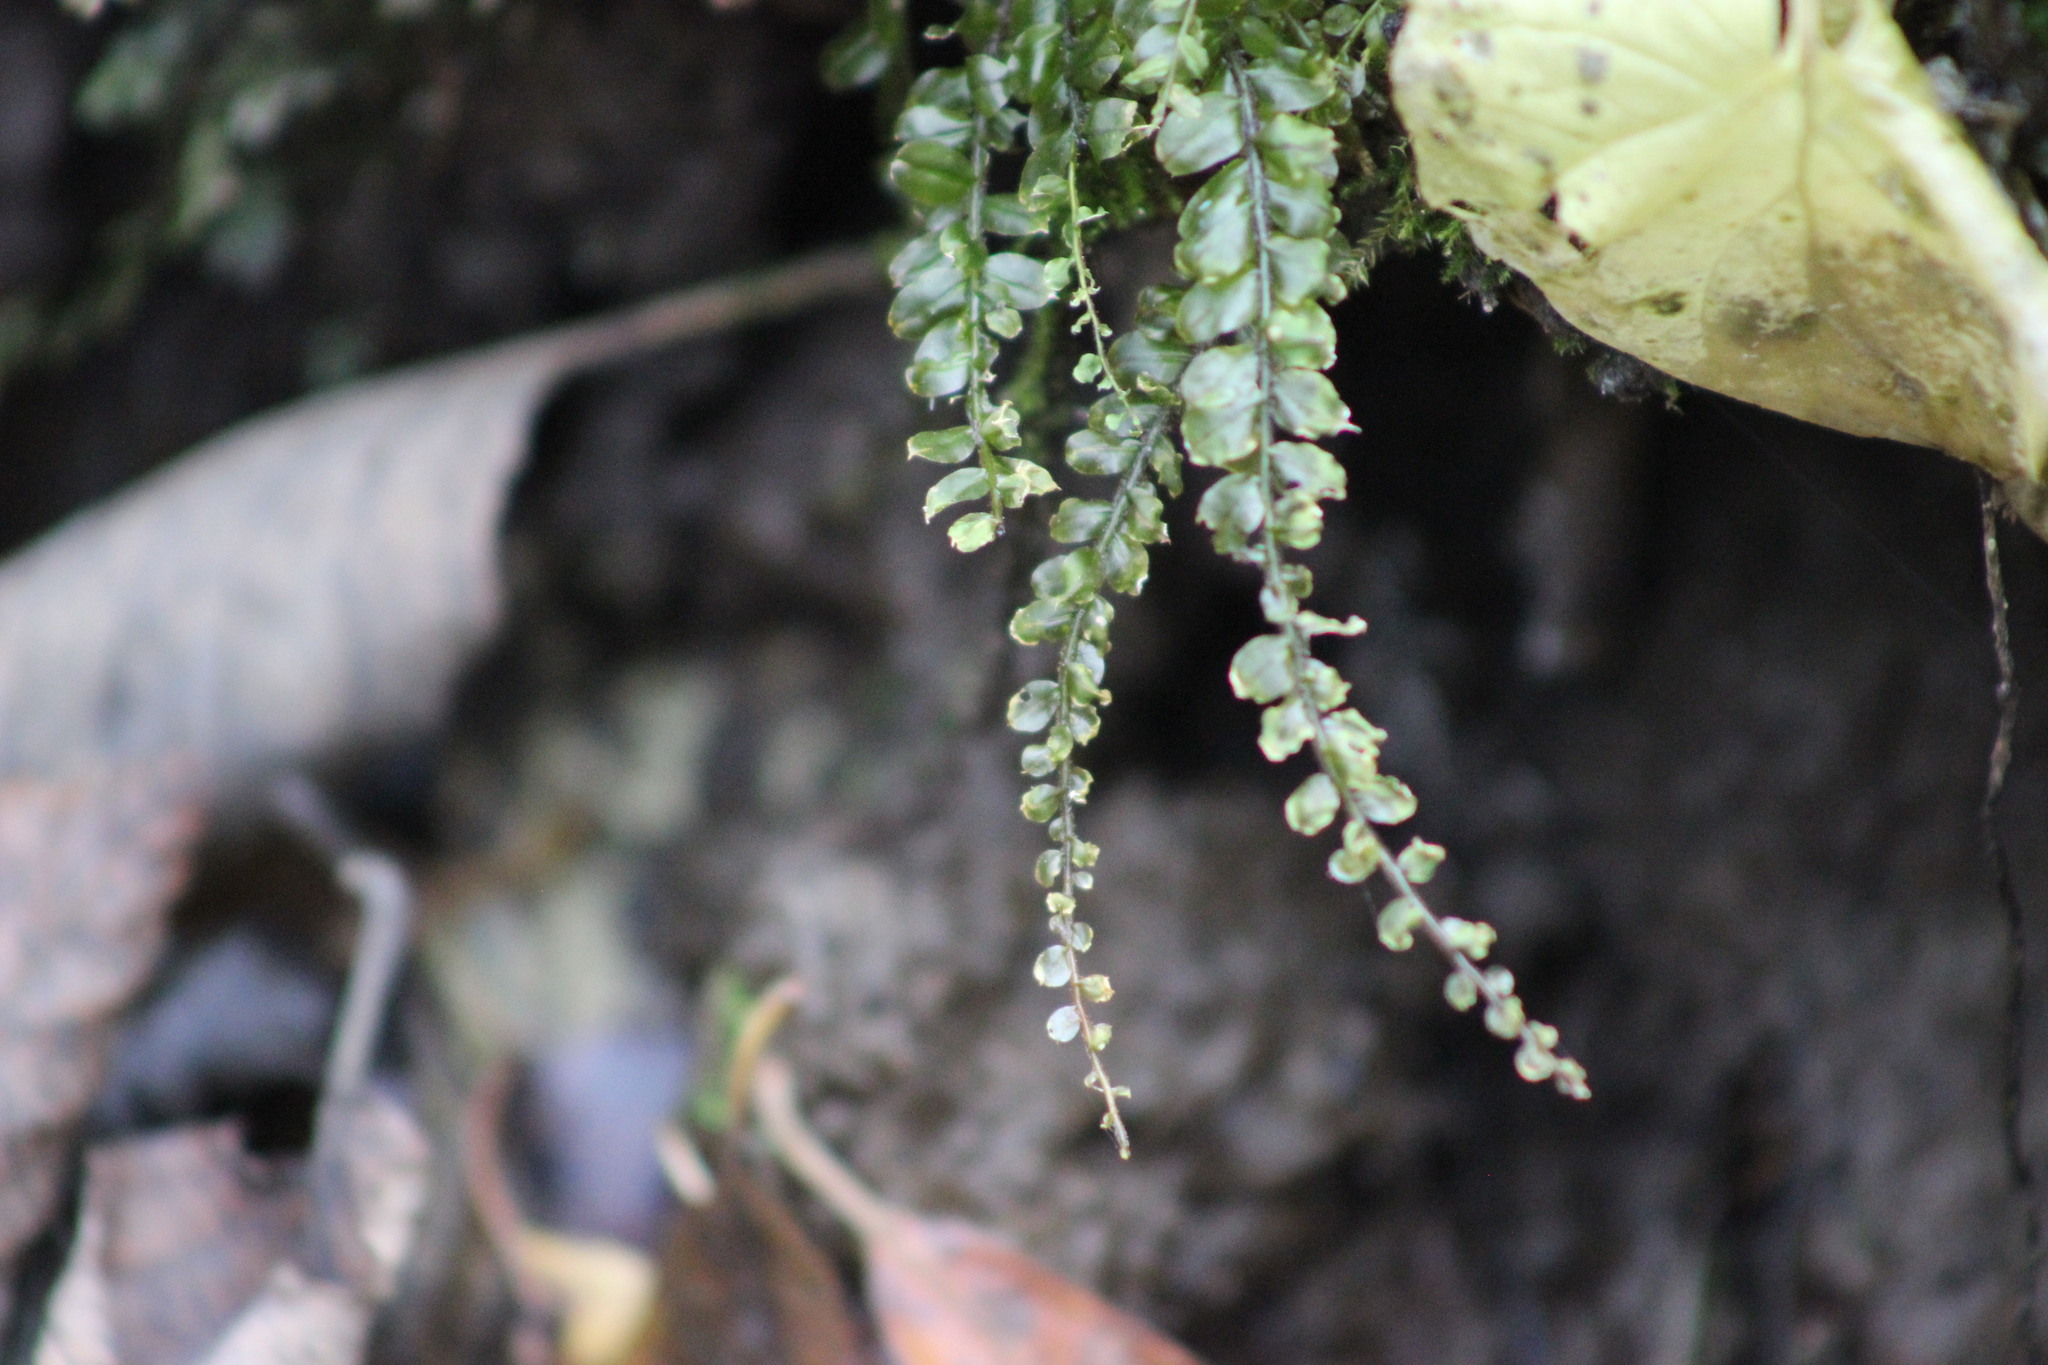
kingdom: Plantae
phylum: Bryophyta
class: Bryopsida
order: Bryales
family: Mniaceae
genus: Plagiomnium
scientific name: Plagiomnium rostratum
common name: Long-beaked leafy moss
